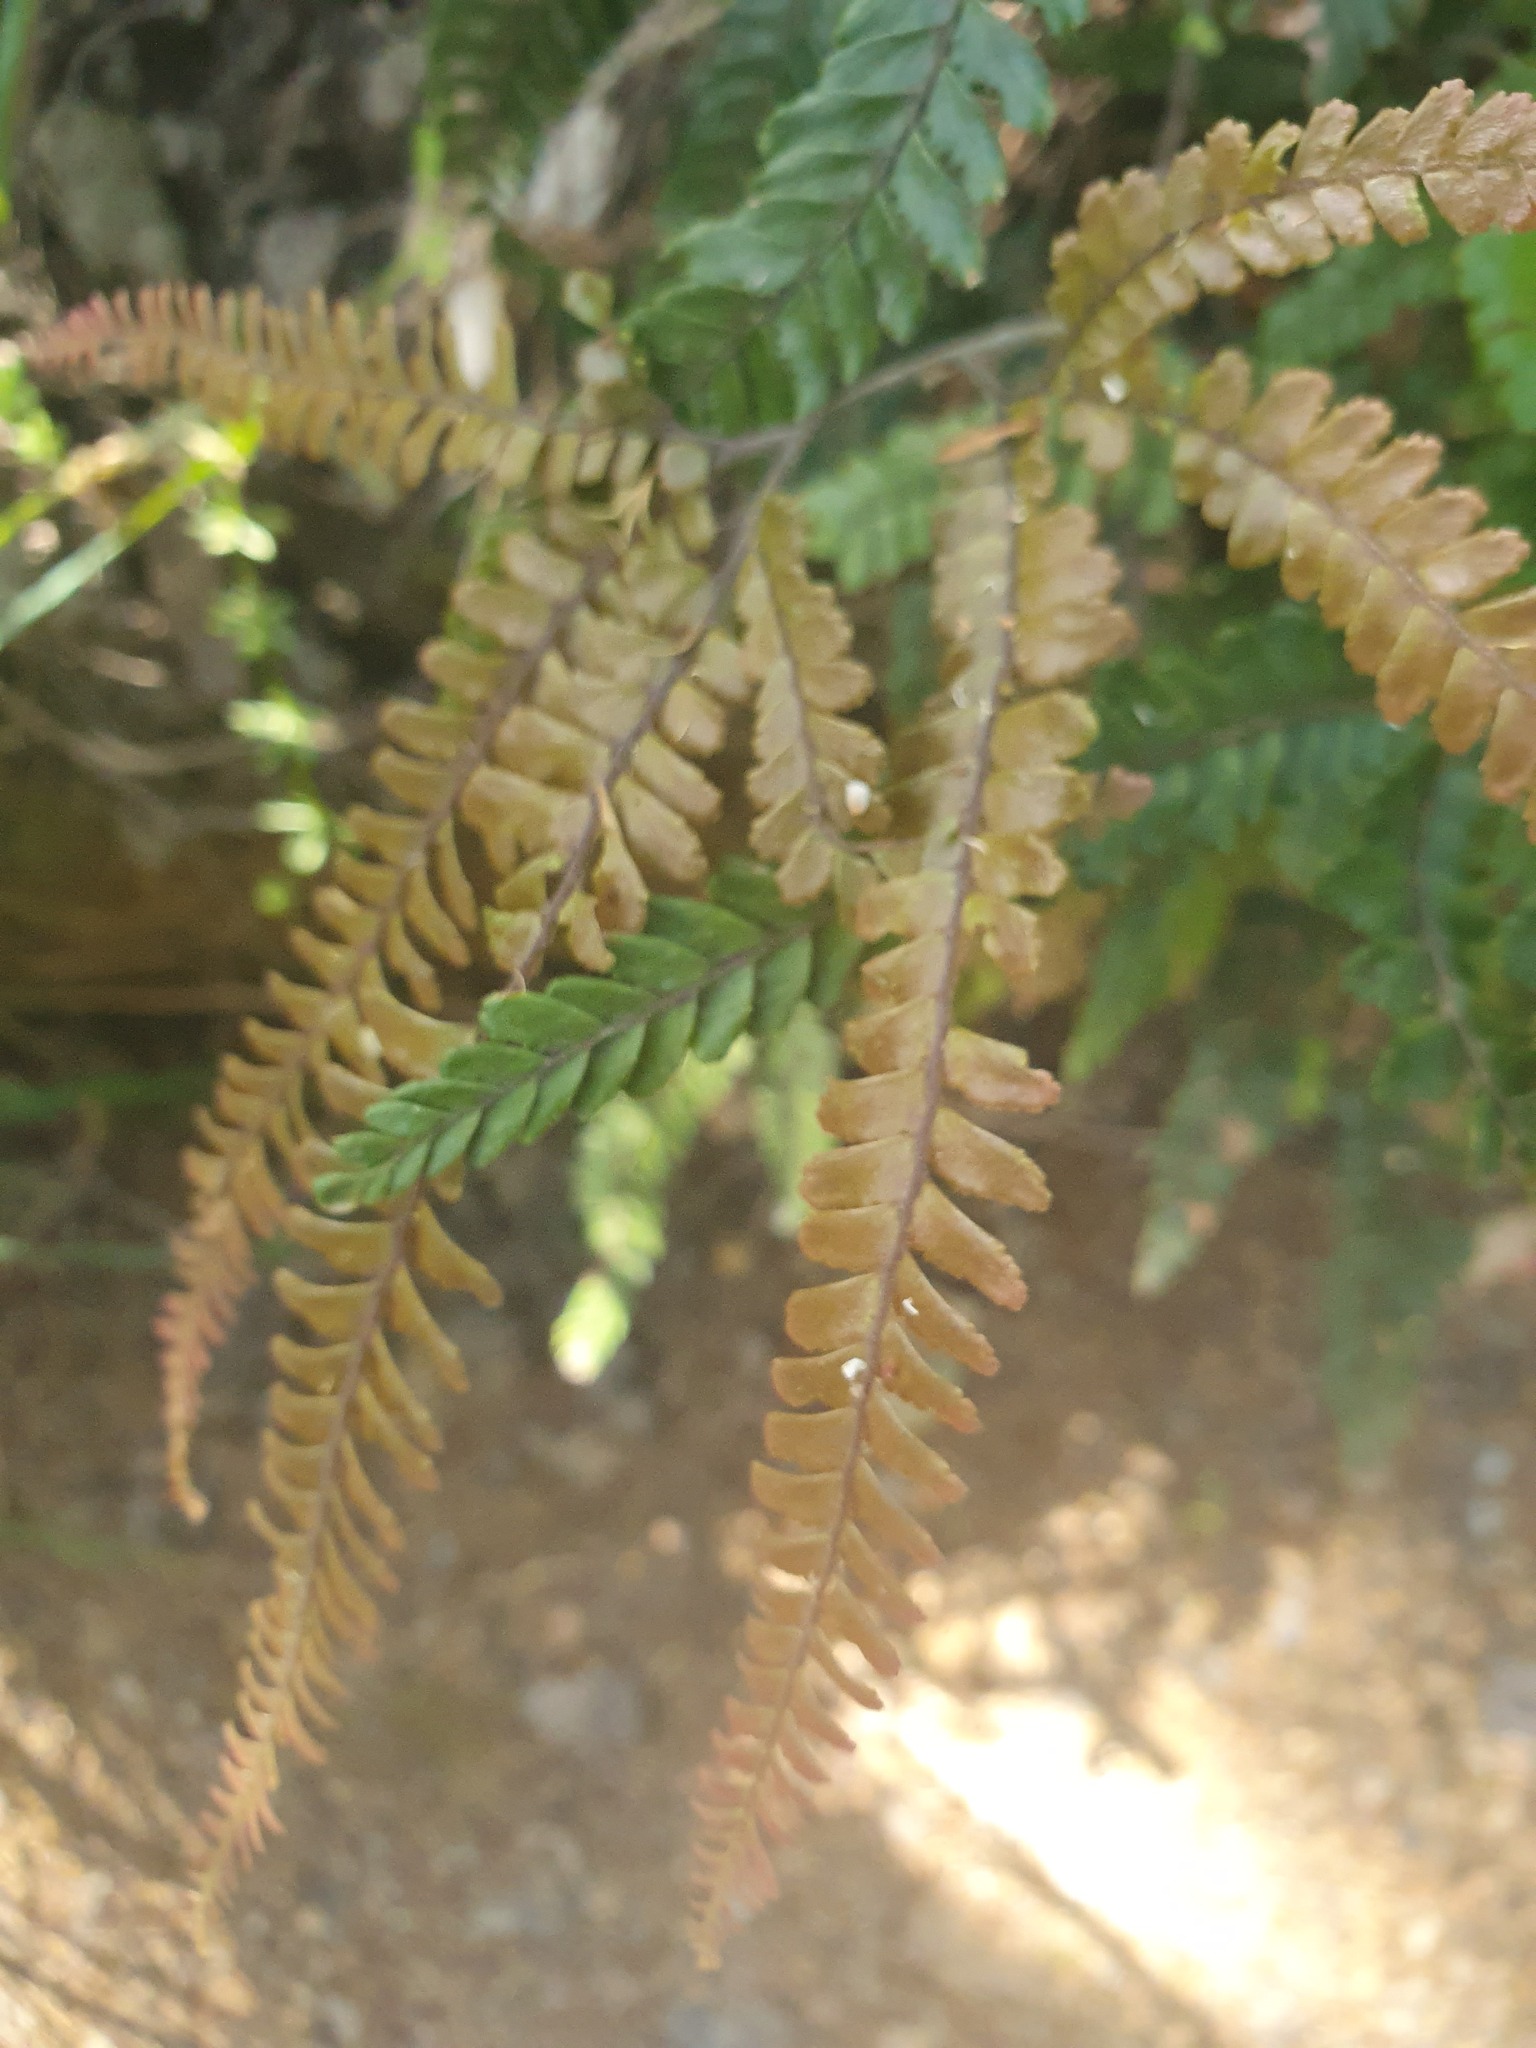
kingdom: Plantae
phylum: Tracheophyta
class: Polypodiopsida
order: Polypodiales
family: Pteridaceae
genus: Adiantum
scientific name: Adiantum hispidulum
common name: Rough maidenhair
